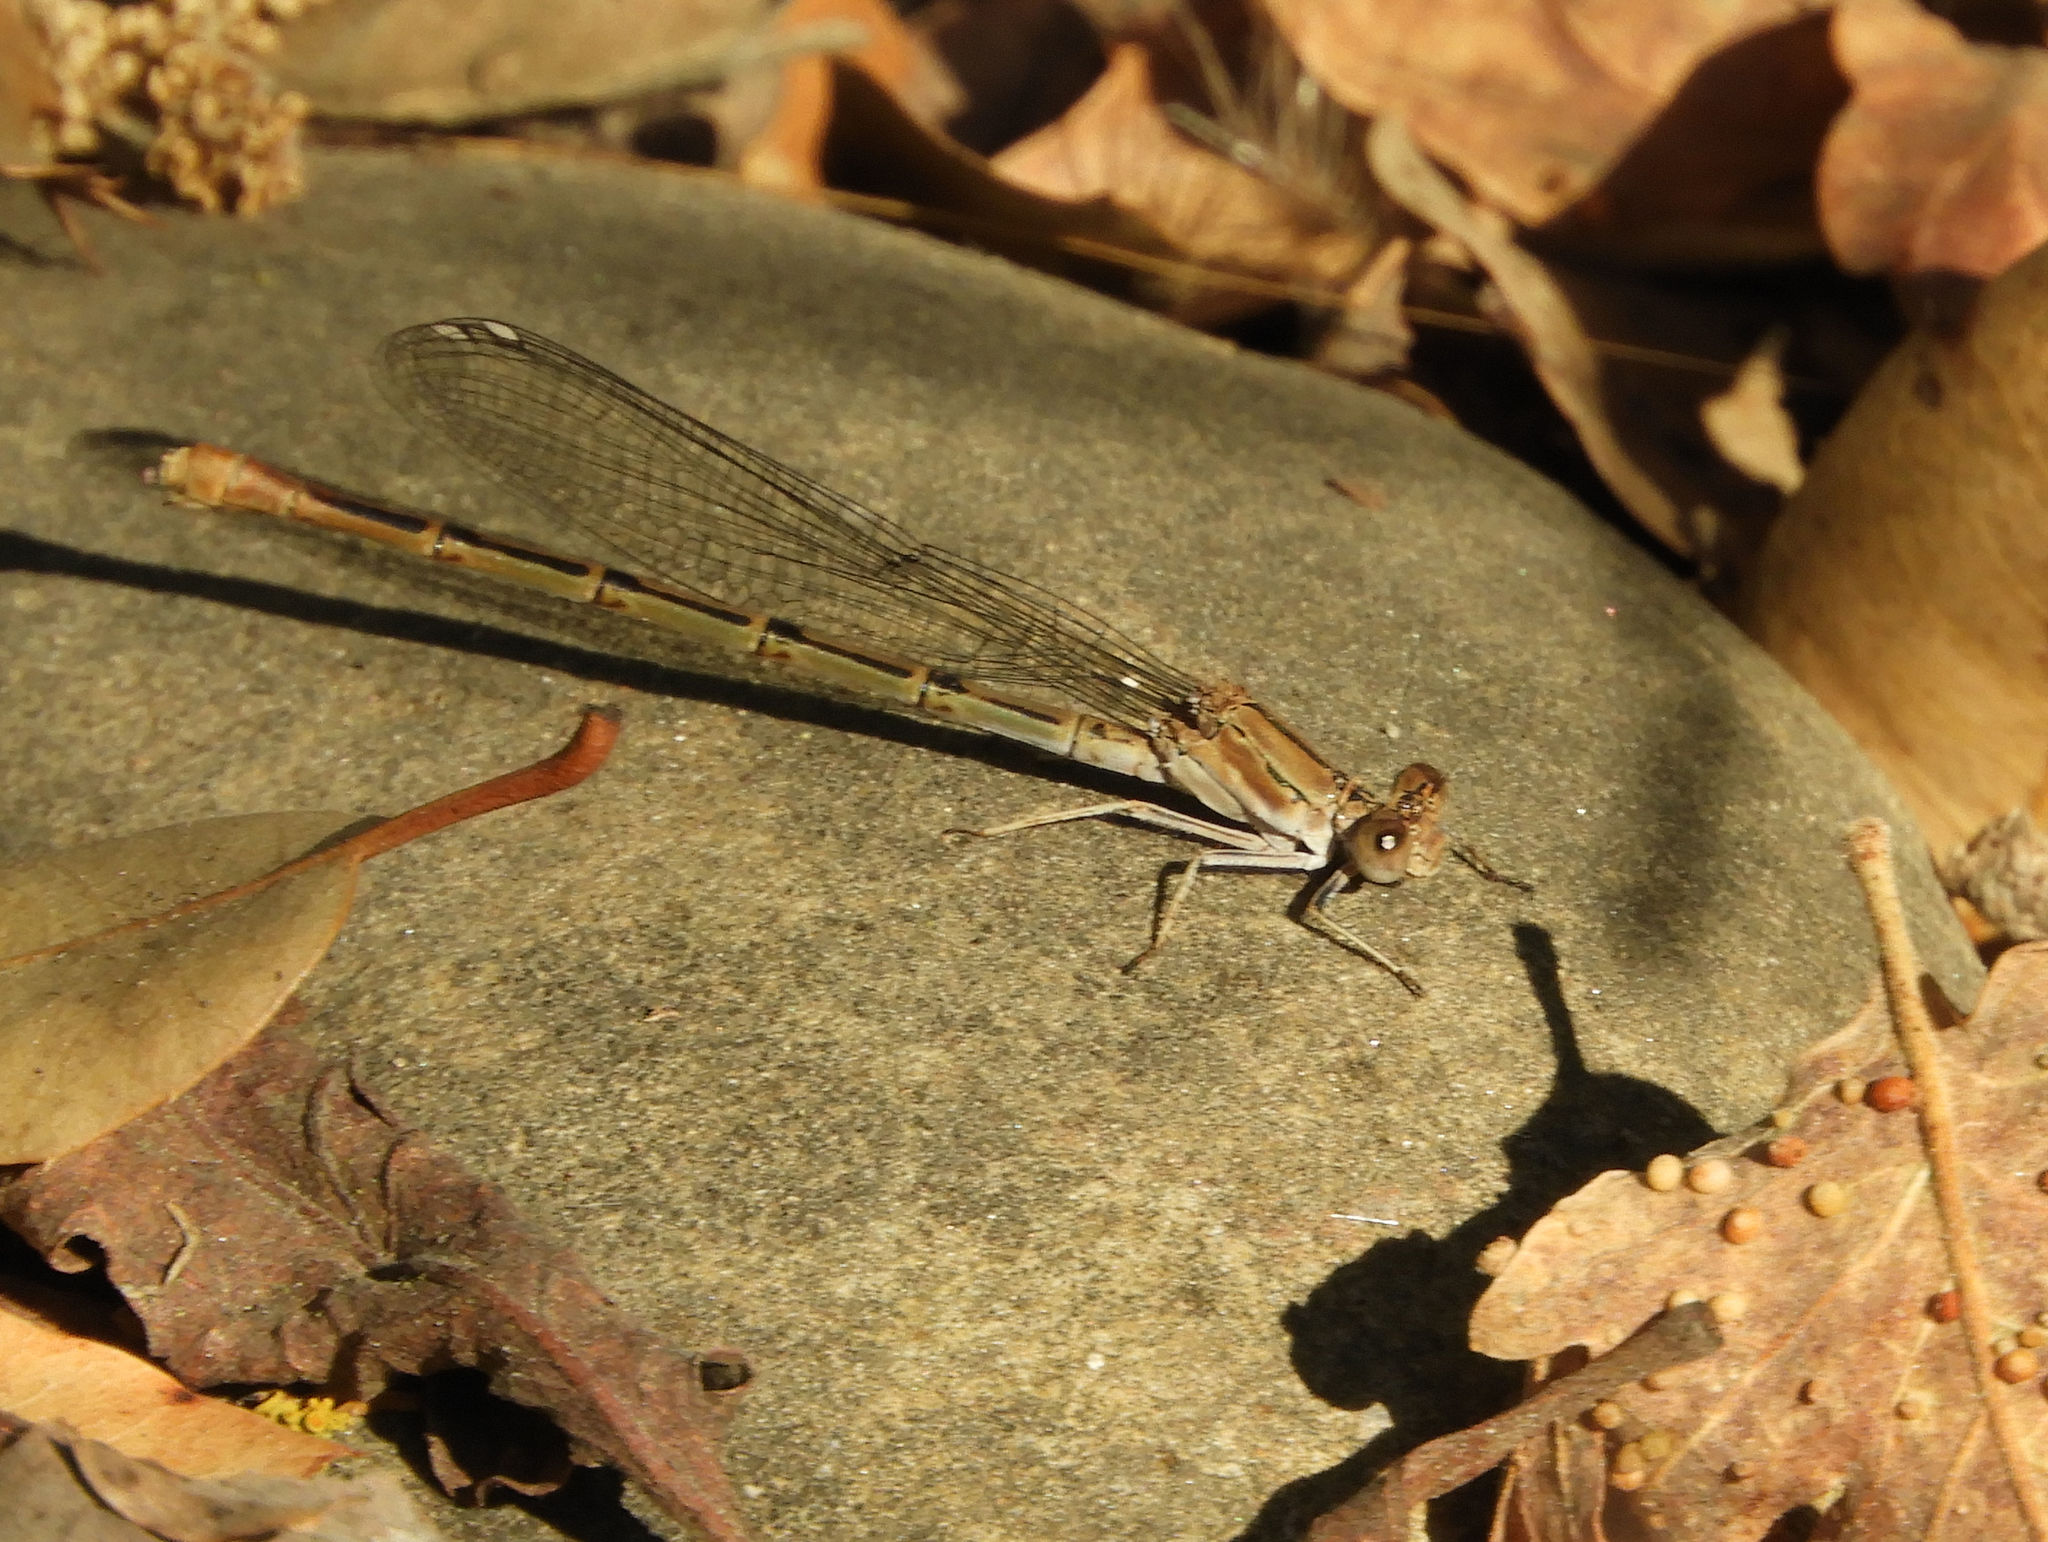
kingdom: Animalia
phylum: Arthropoda
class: Insecta
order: Odonata
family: Coenagrionidae
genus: Argia
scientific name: Argia emma
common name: Emma's dancer
